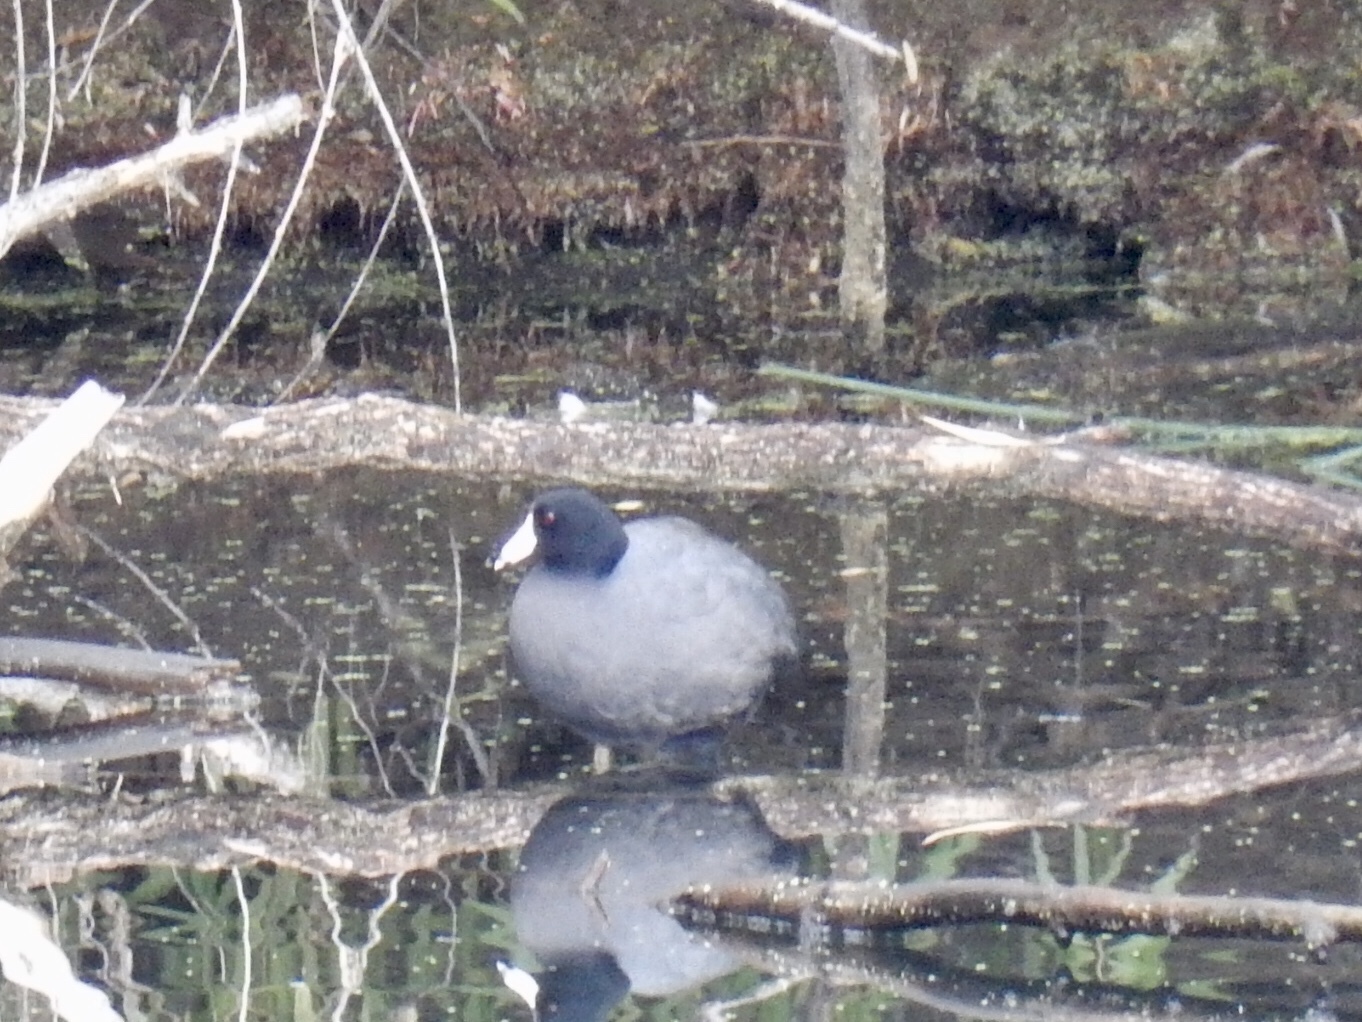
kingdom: Animalia
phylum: Chordata
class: Aves
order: Gruiformes
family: Rallidae
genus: Fulica
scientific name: Fulica americana
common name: American coot
